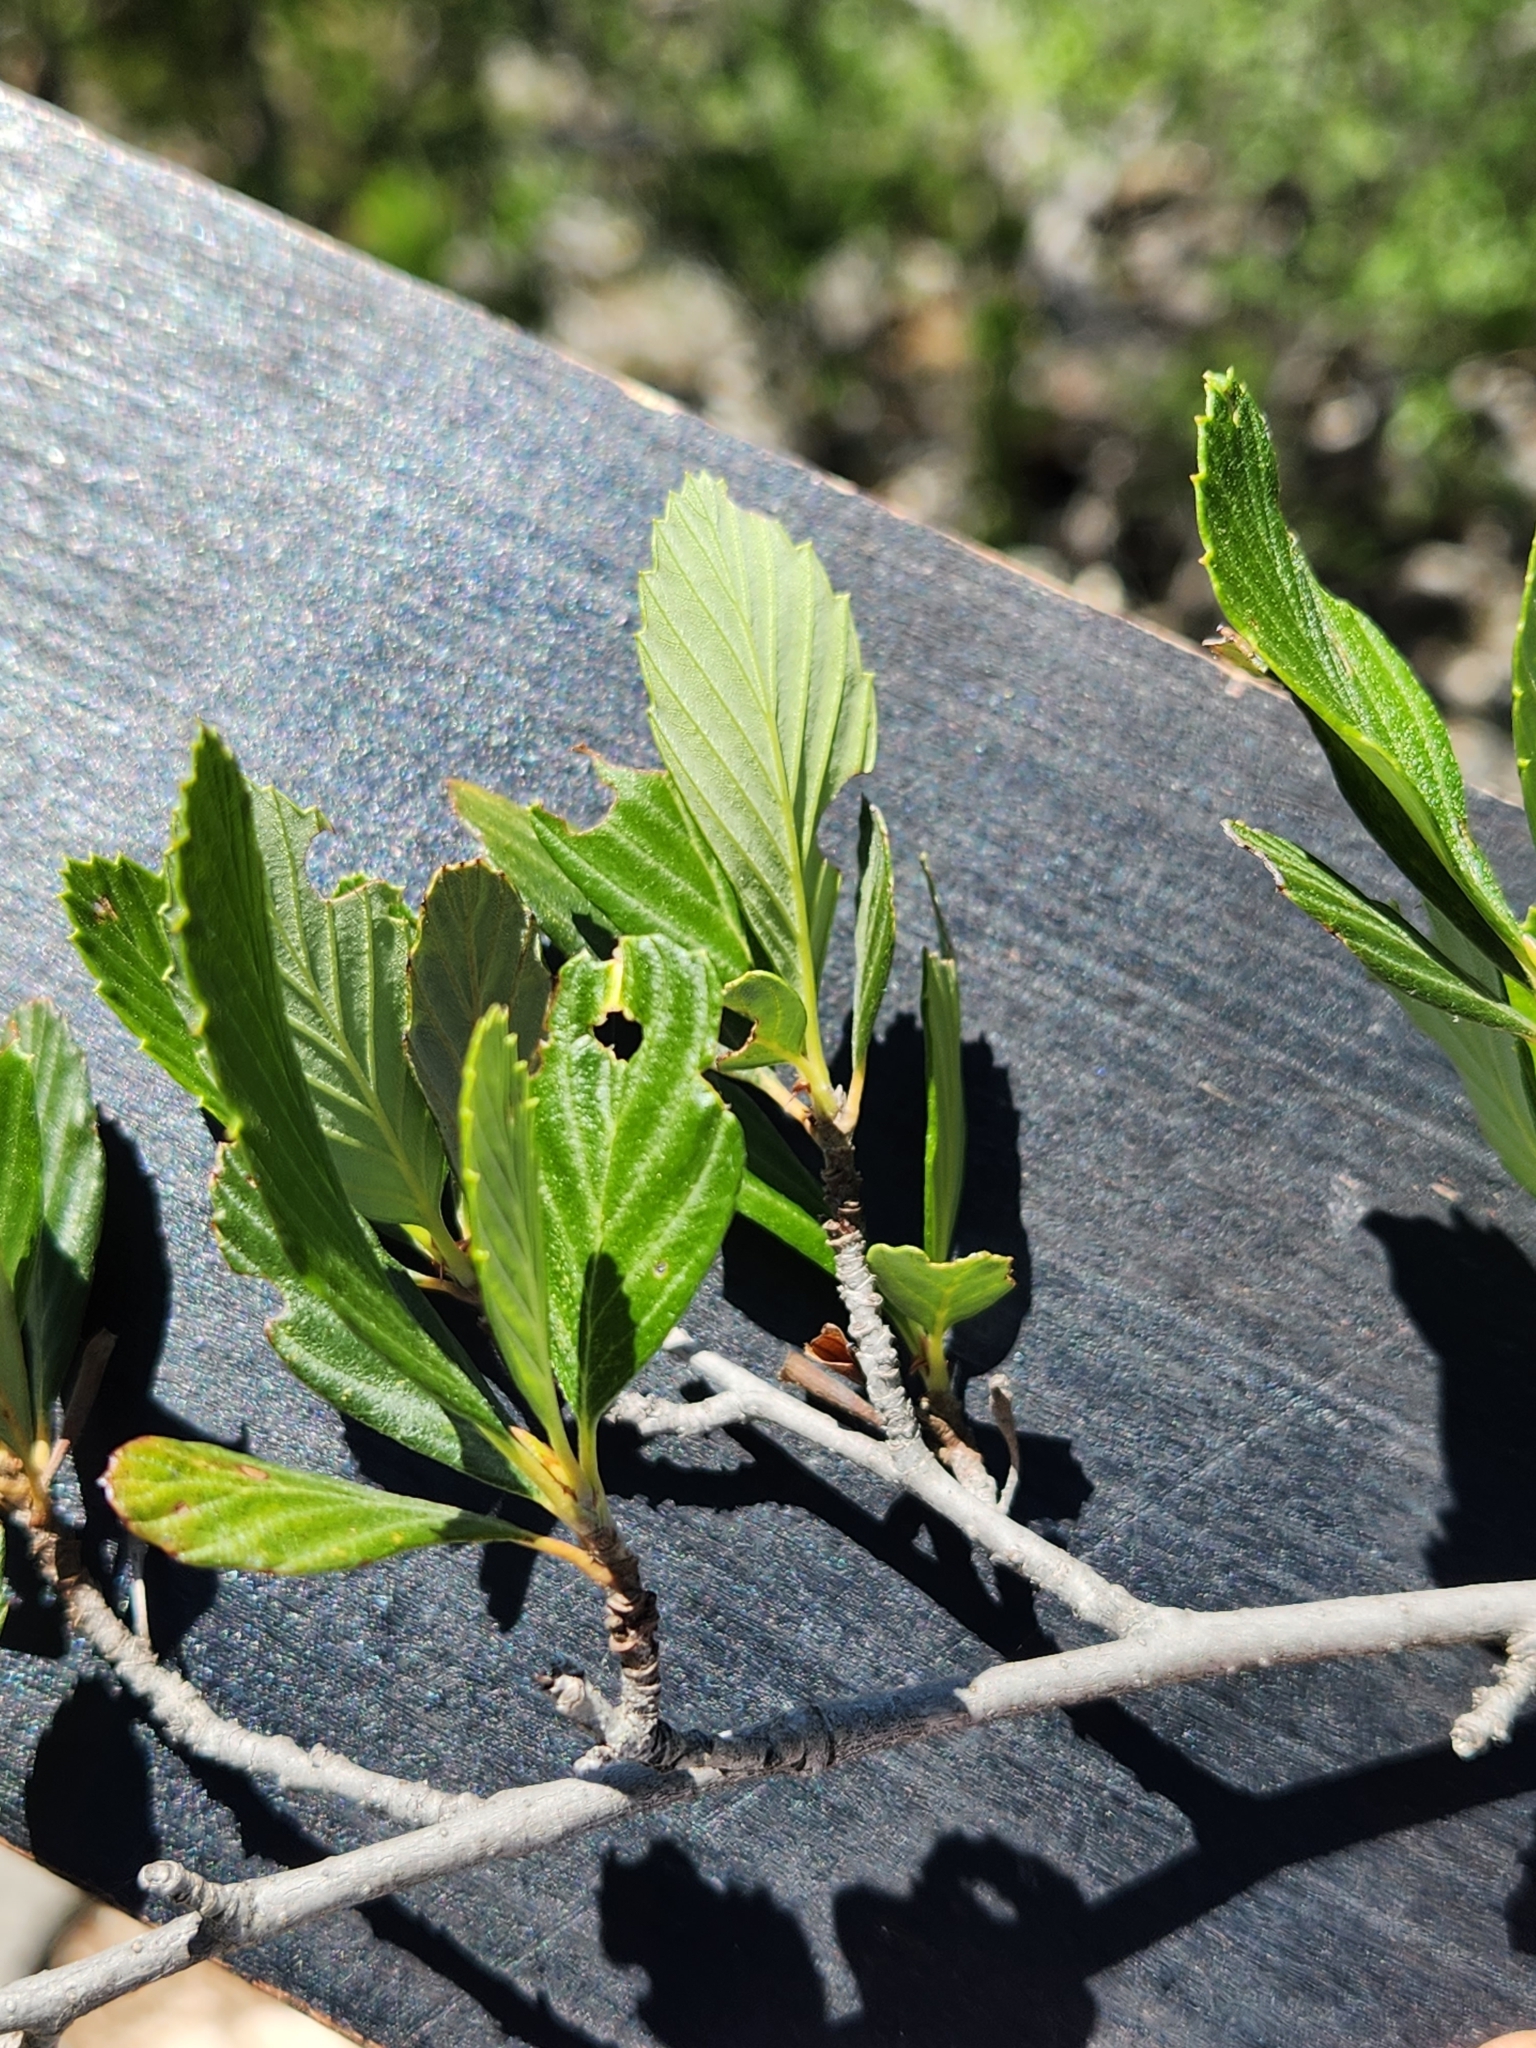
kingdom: Plantae
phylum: Tracheophyta
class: Magnoliopsida
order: Rosales
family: Rosaceae
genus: Cercocarpus
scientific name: Cercocarpus montanus
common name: Alder-leaf cercocarpus
